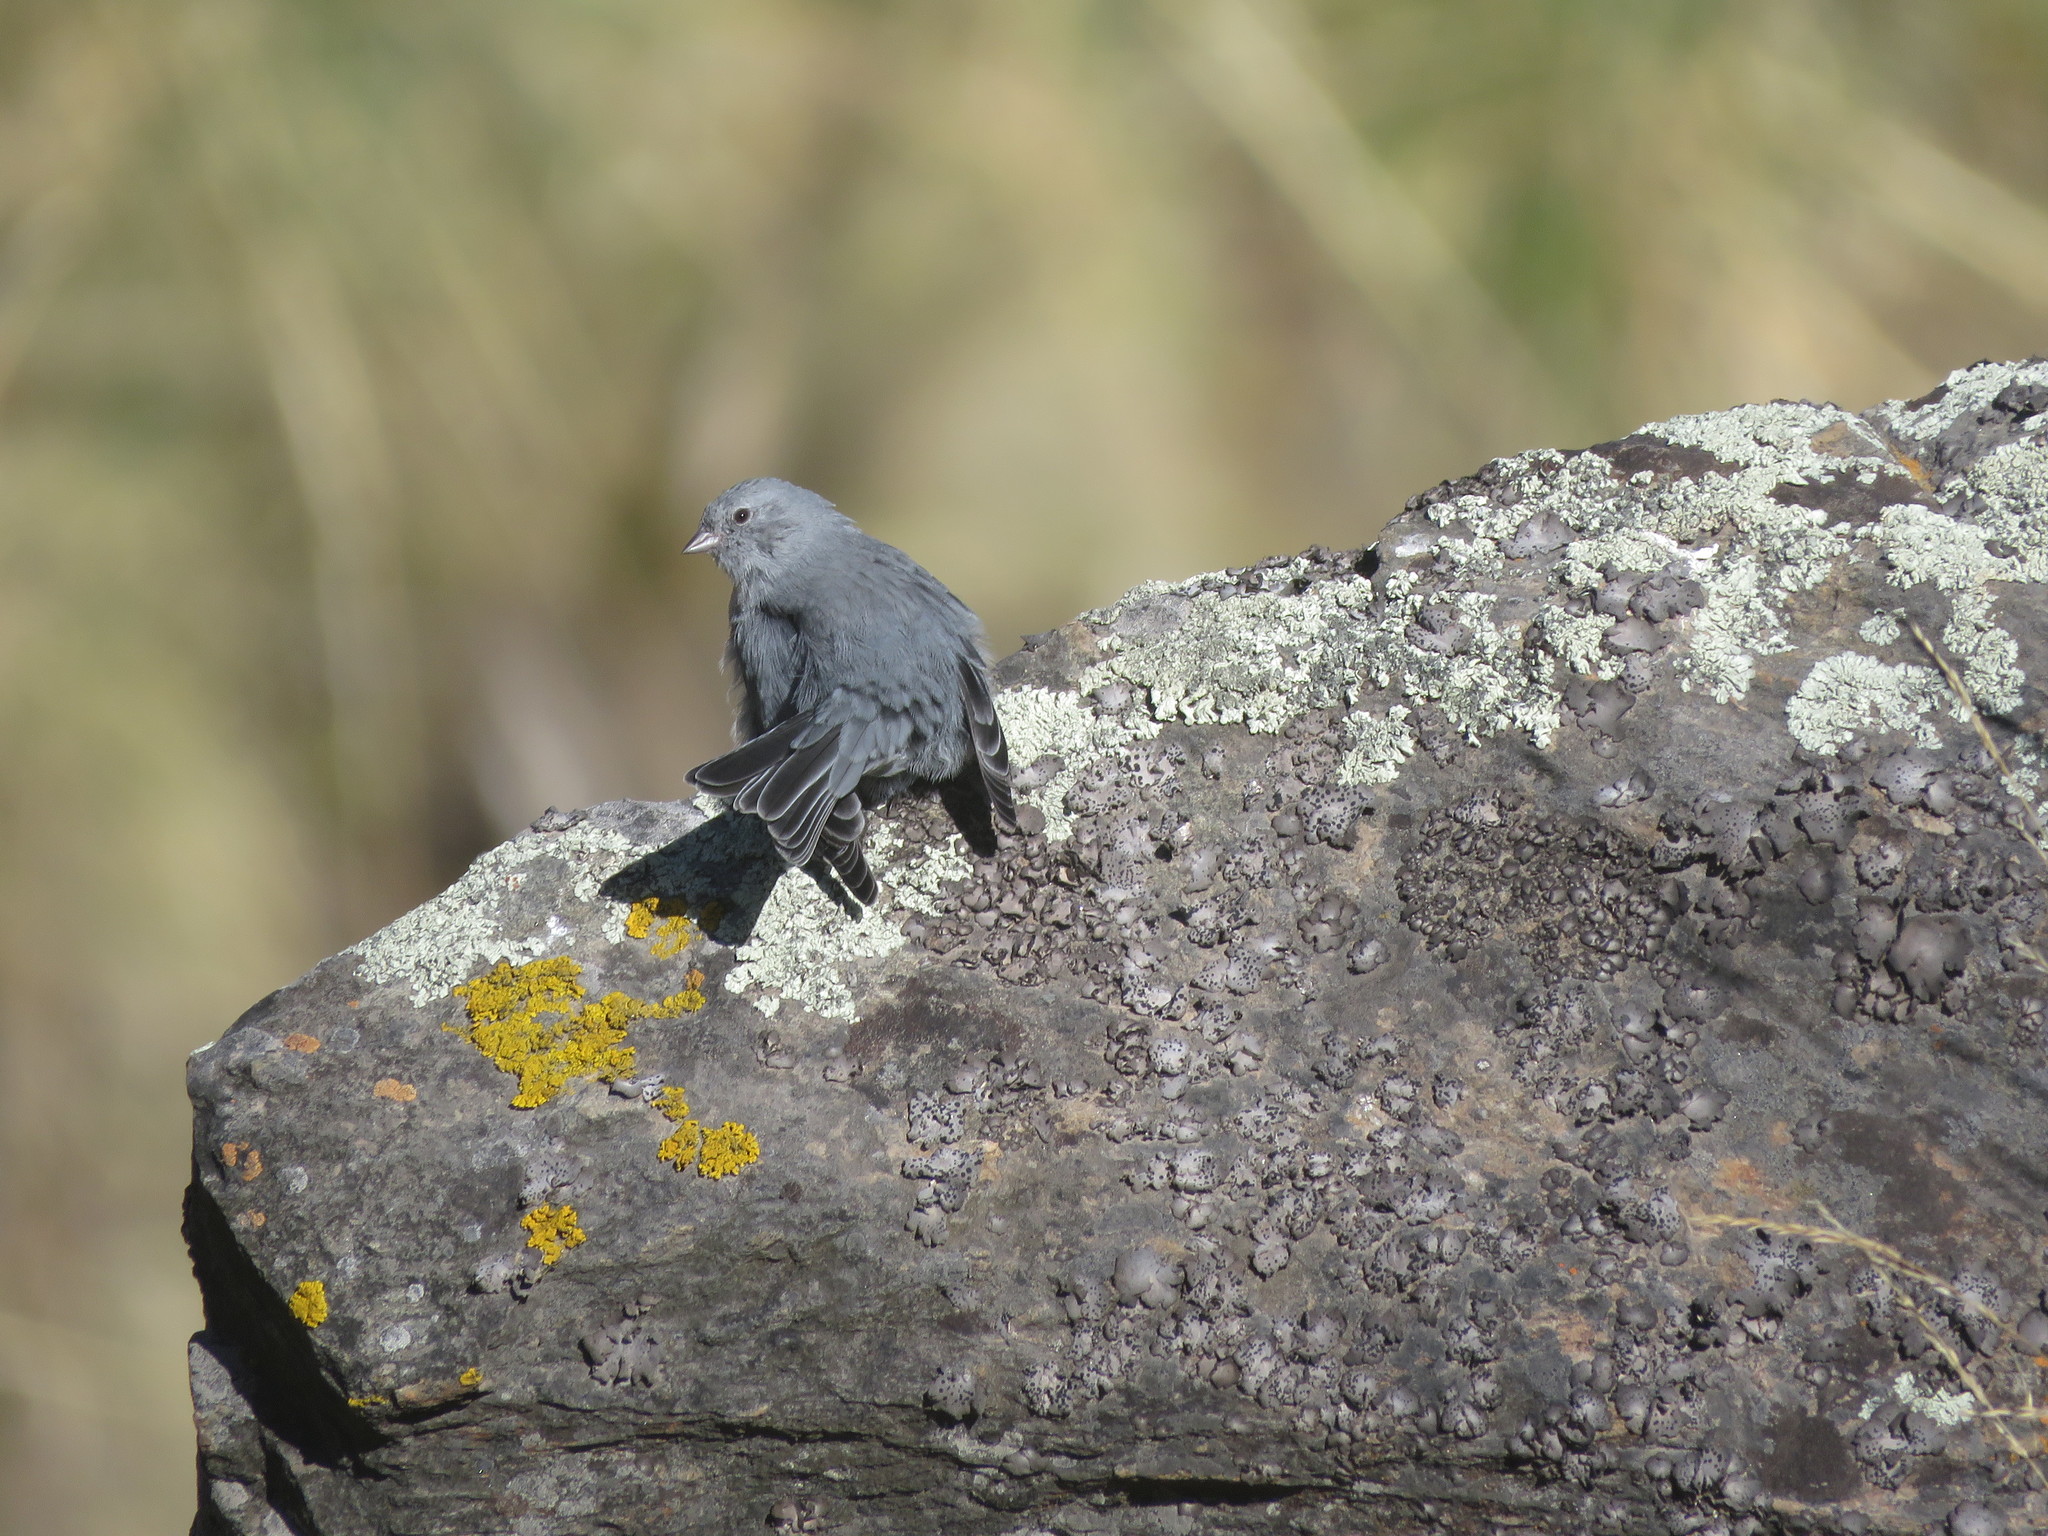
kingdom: Animalia
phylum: Chordata
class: Aves
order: Passeriformes
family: Thraupidae
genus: Geospizopsis
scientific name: Geospizopsis unicolor
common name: Plumbeous sierra-finch
